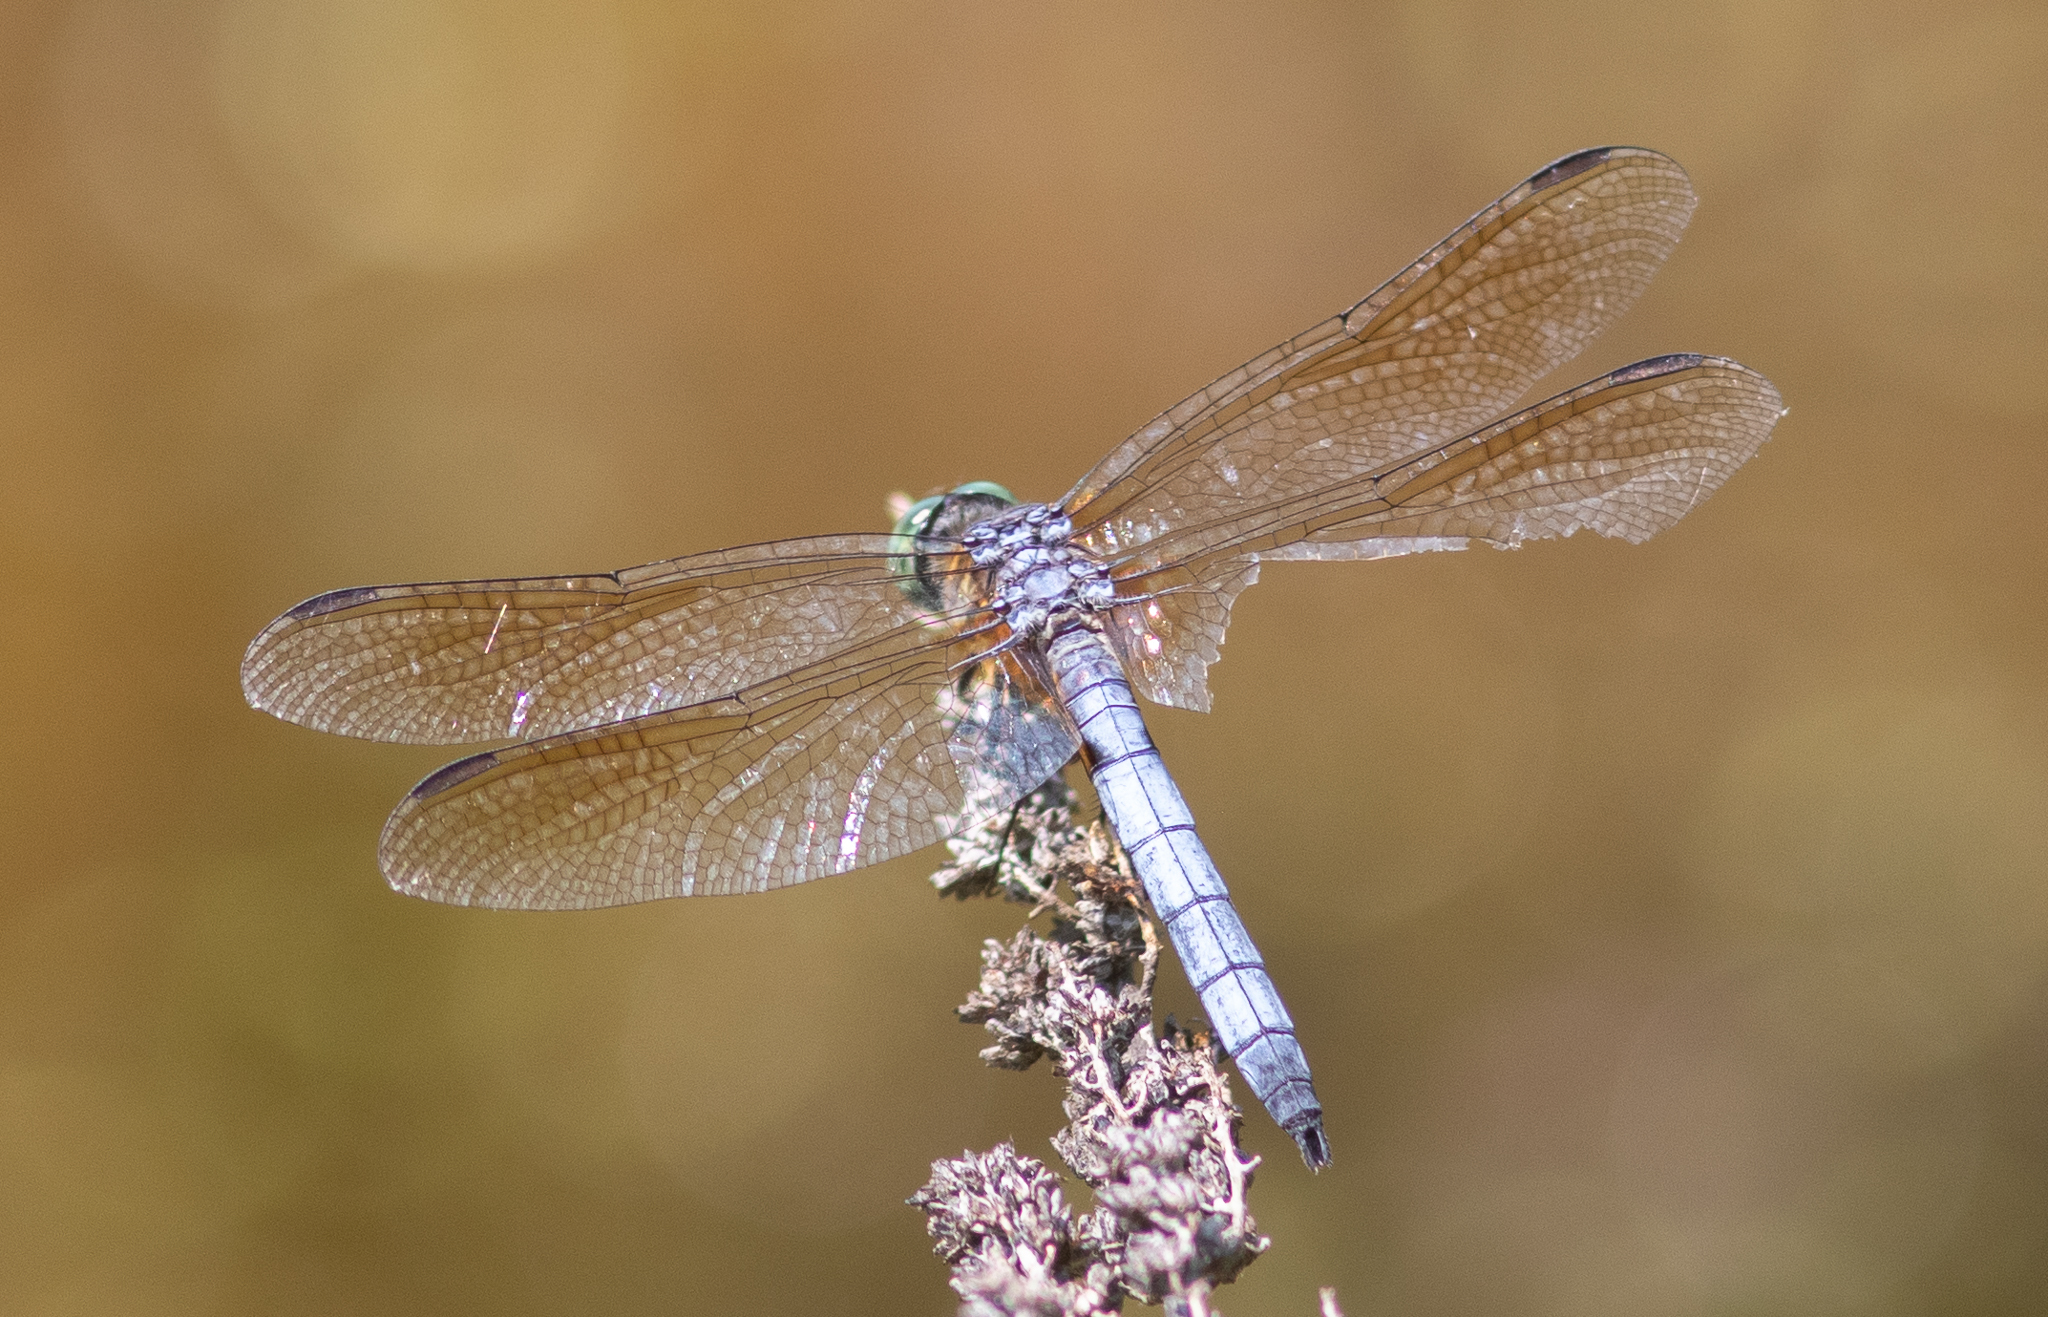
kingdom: Animalia
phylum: Arthropoda
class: Insecta
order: Odonata
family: Libellulidae
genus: Pachydiplax
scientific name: Pachydiplax longipennis
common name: Blue dasher
